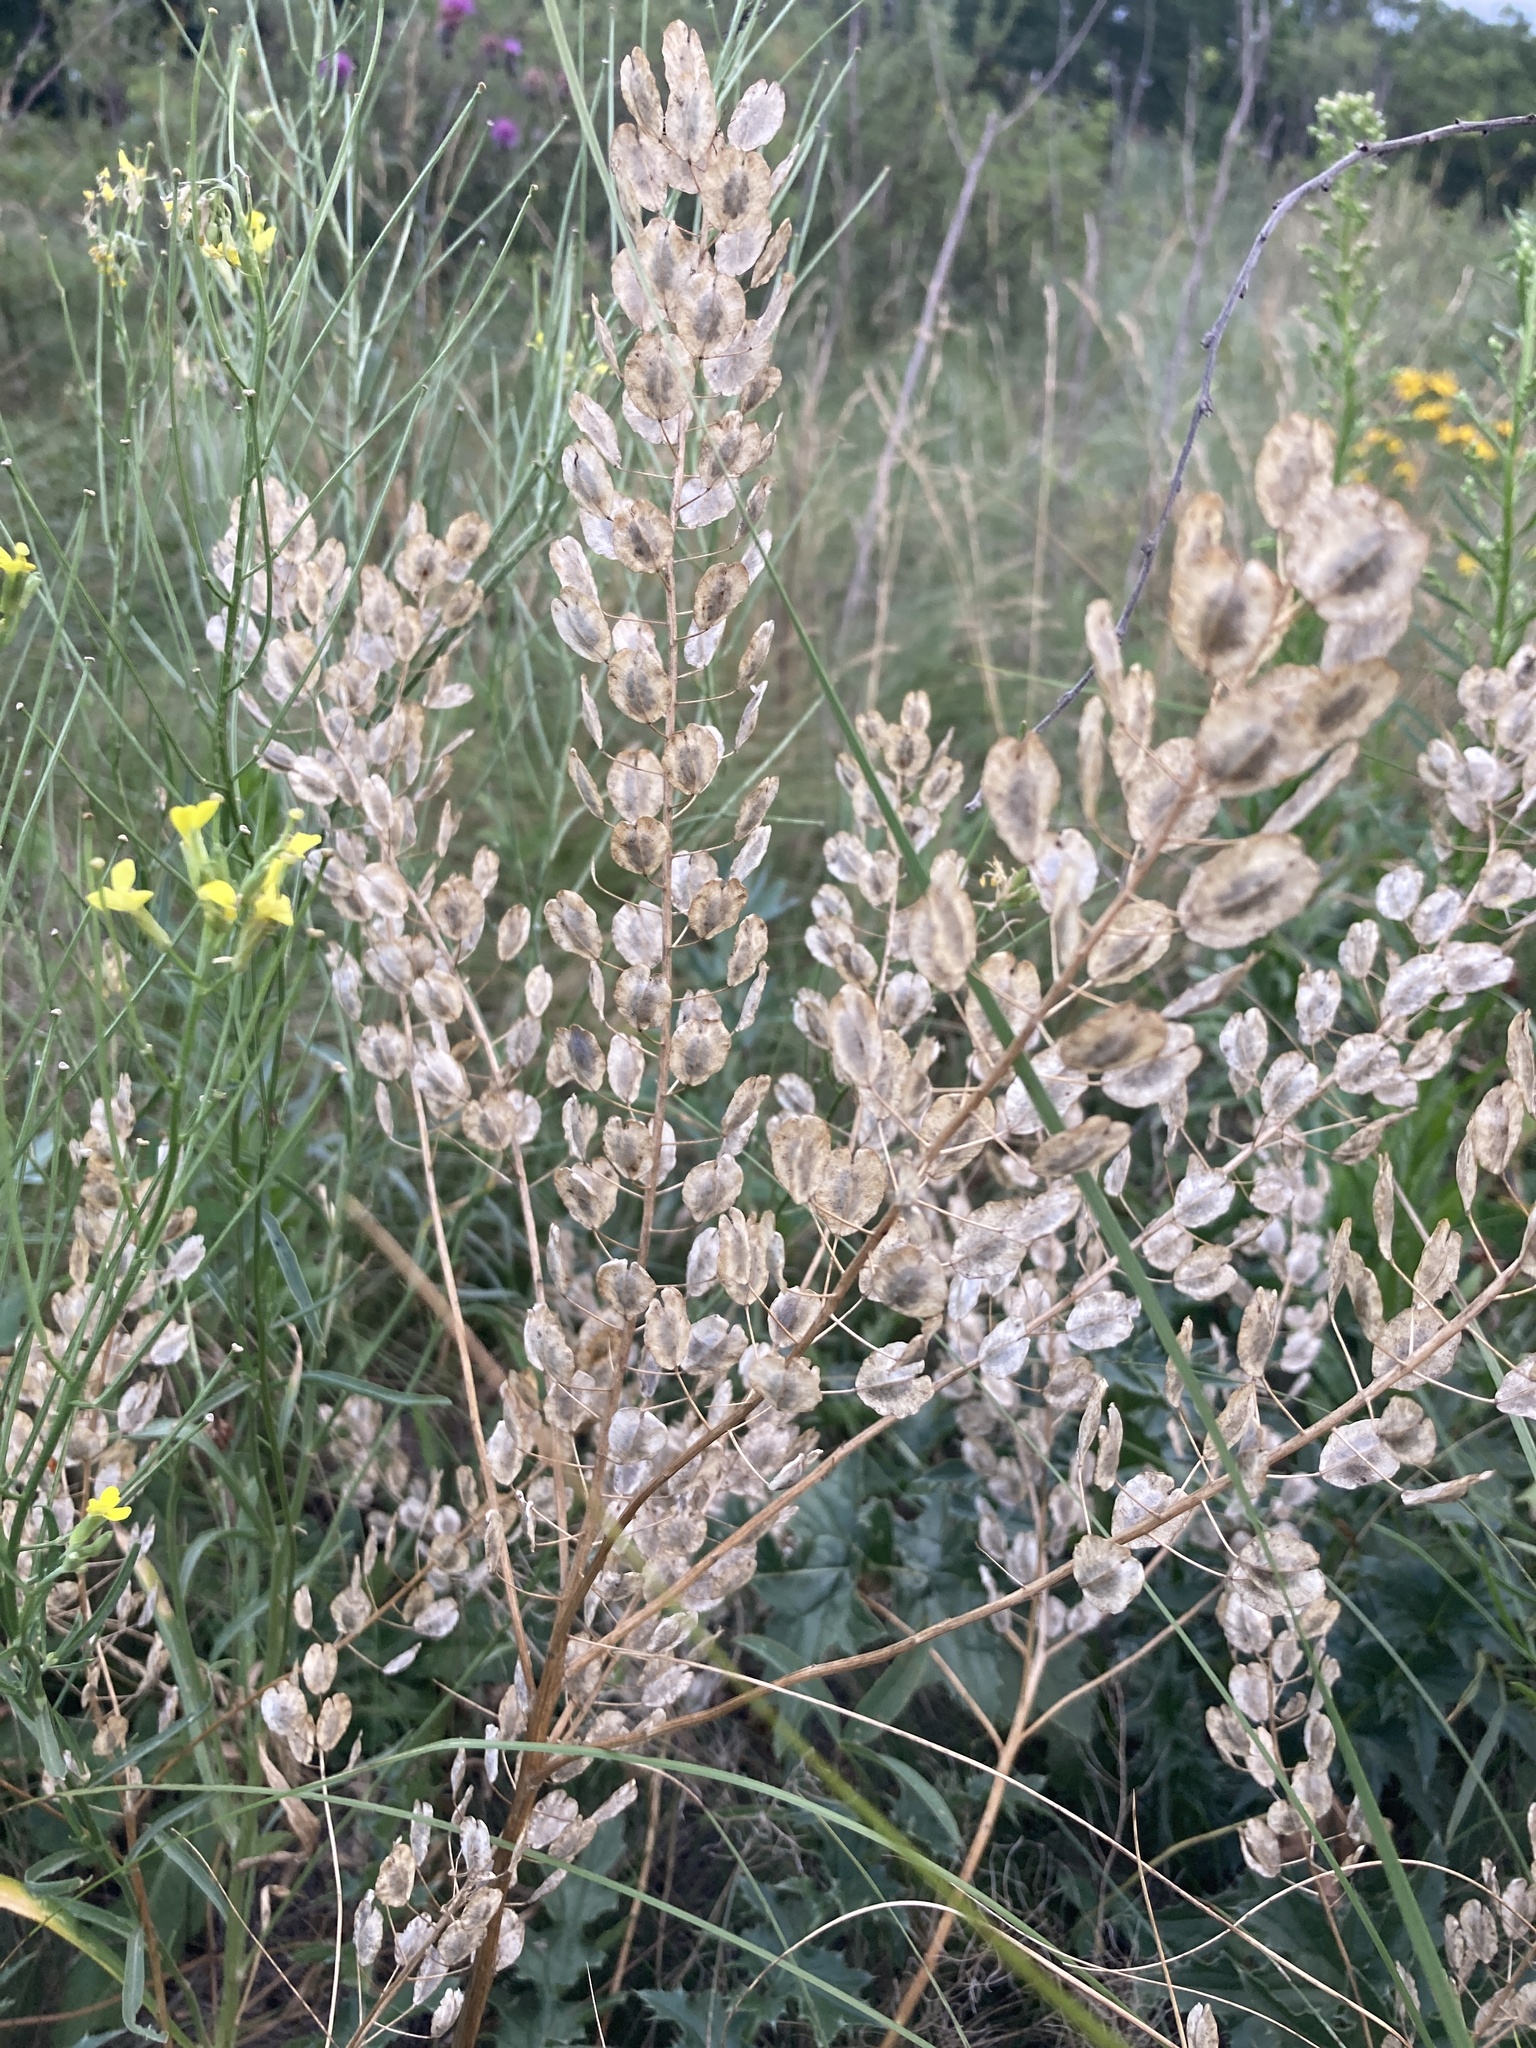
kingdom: Plantae
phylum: Tracheophyta
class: Magnoliopsida
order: Brassicales
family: Brassicaceae
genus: Thlaspi
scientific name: Thlaspi arvense
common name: Field pennycress
